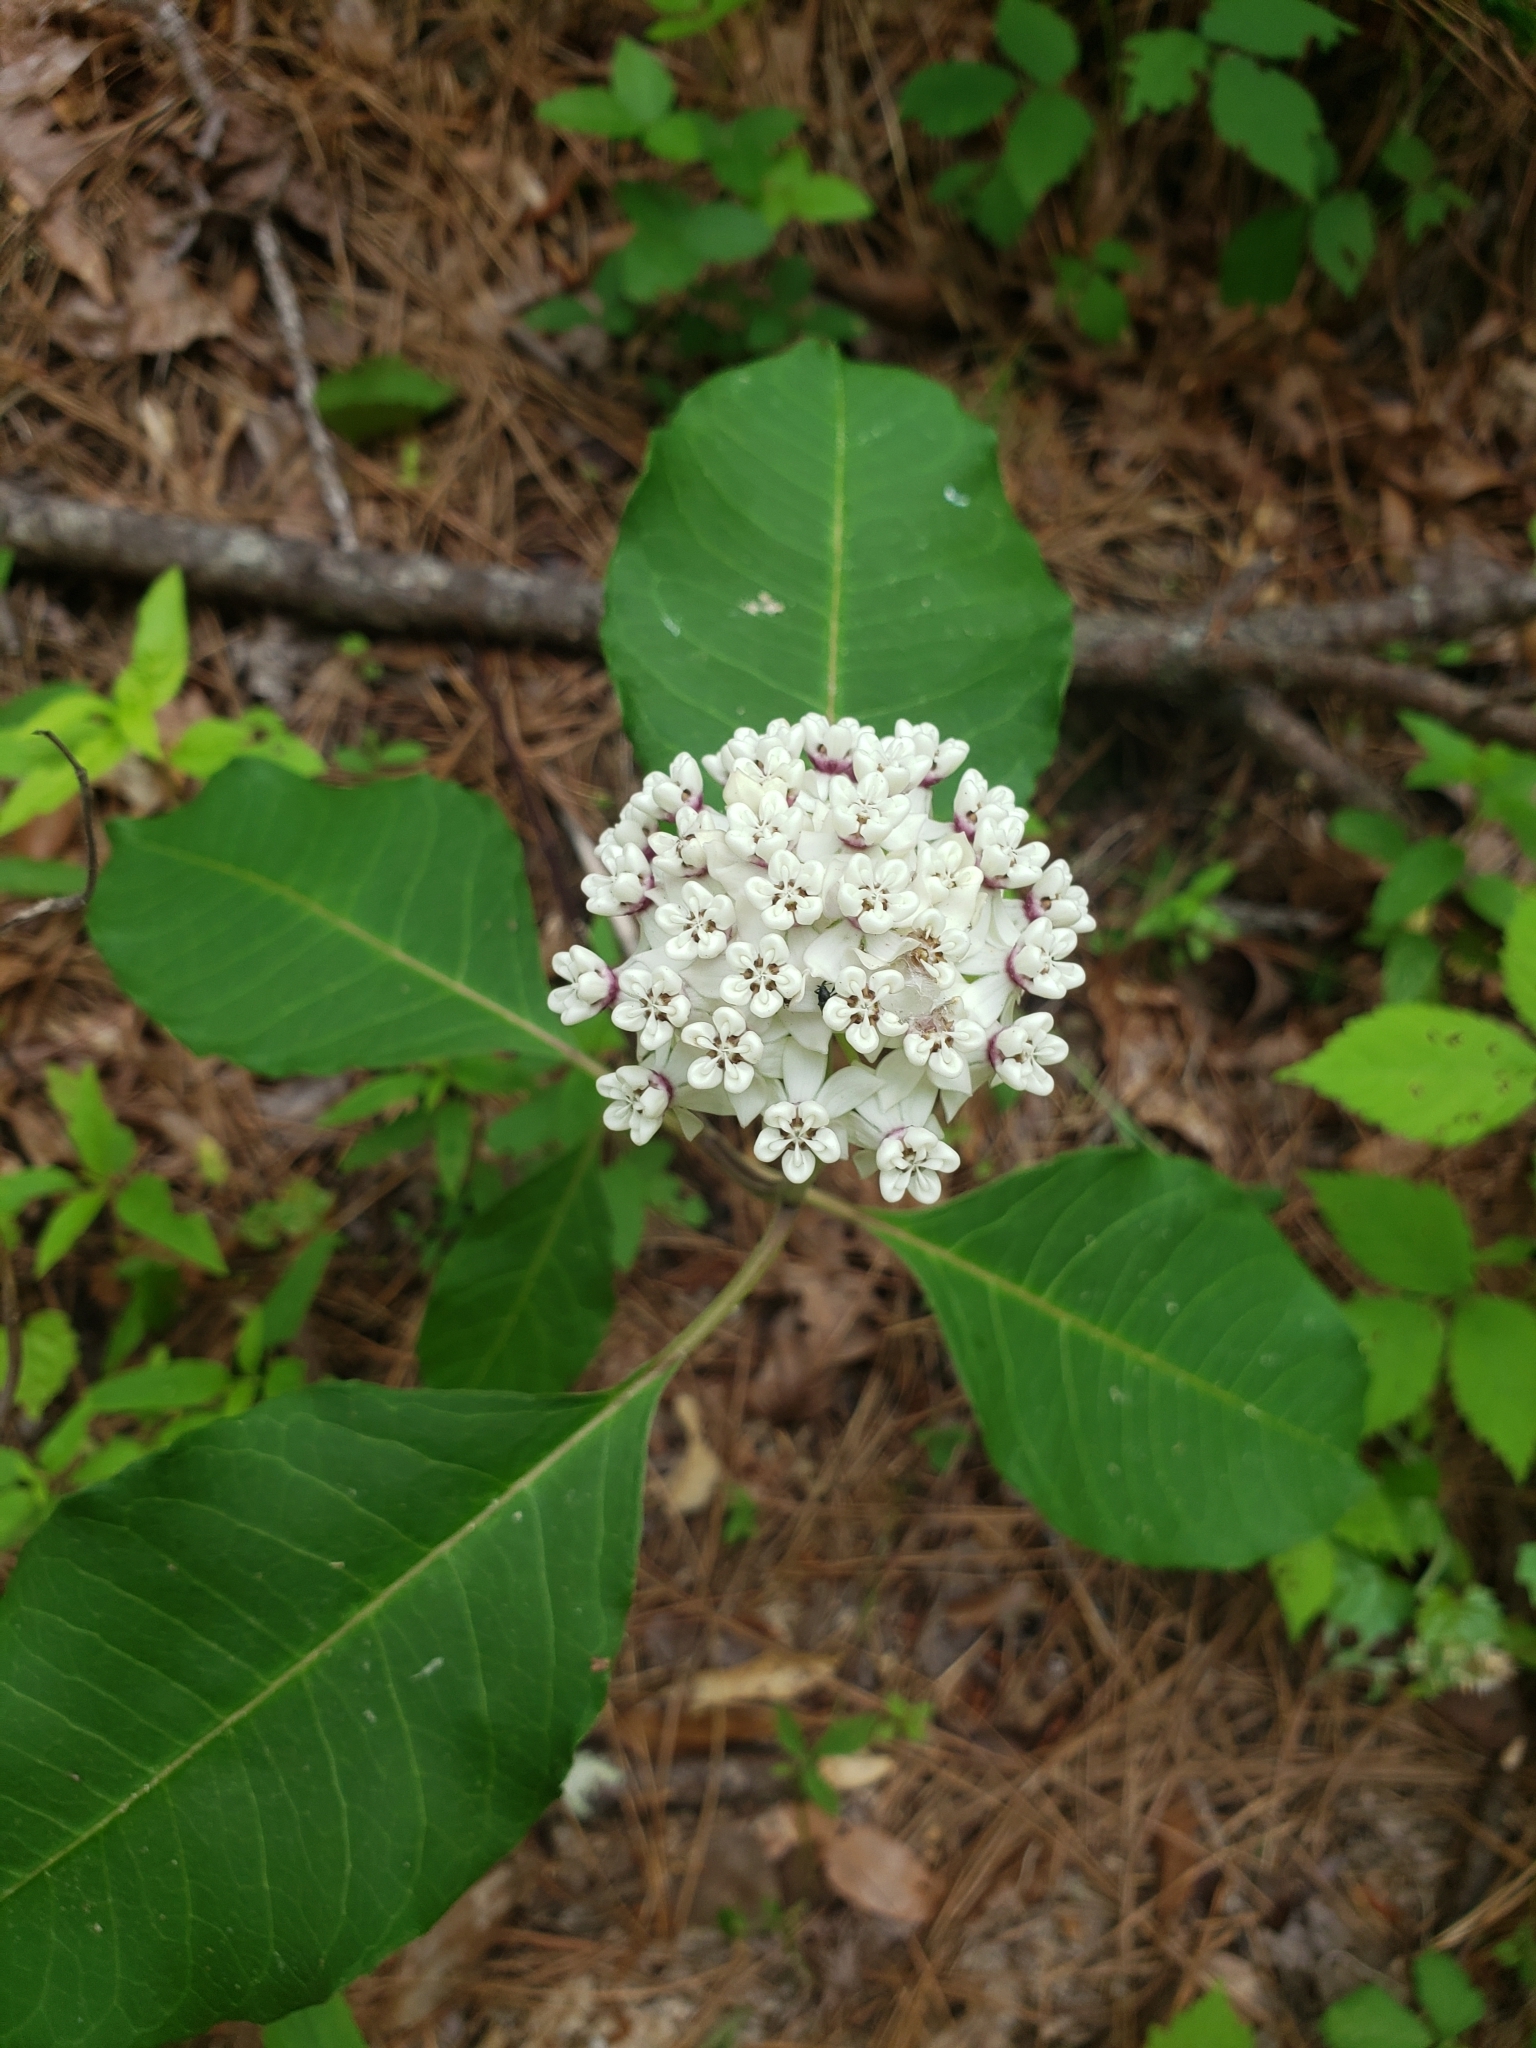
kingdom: Plantae
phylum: Tracheophyta
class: Magnoliopsida
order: Gentianales
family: Apocynaceae
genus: Asclepias
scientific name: Asclepias variegata
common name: Variegated milkweed
